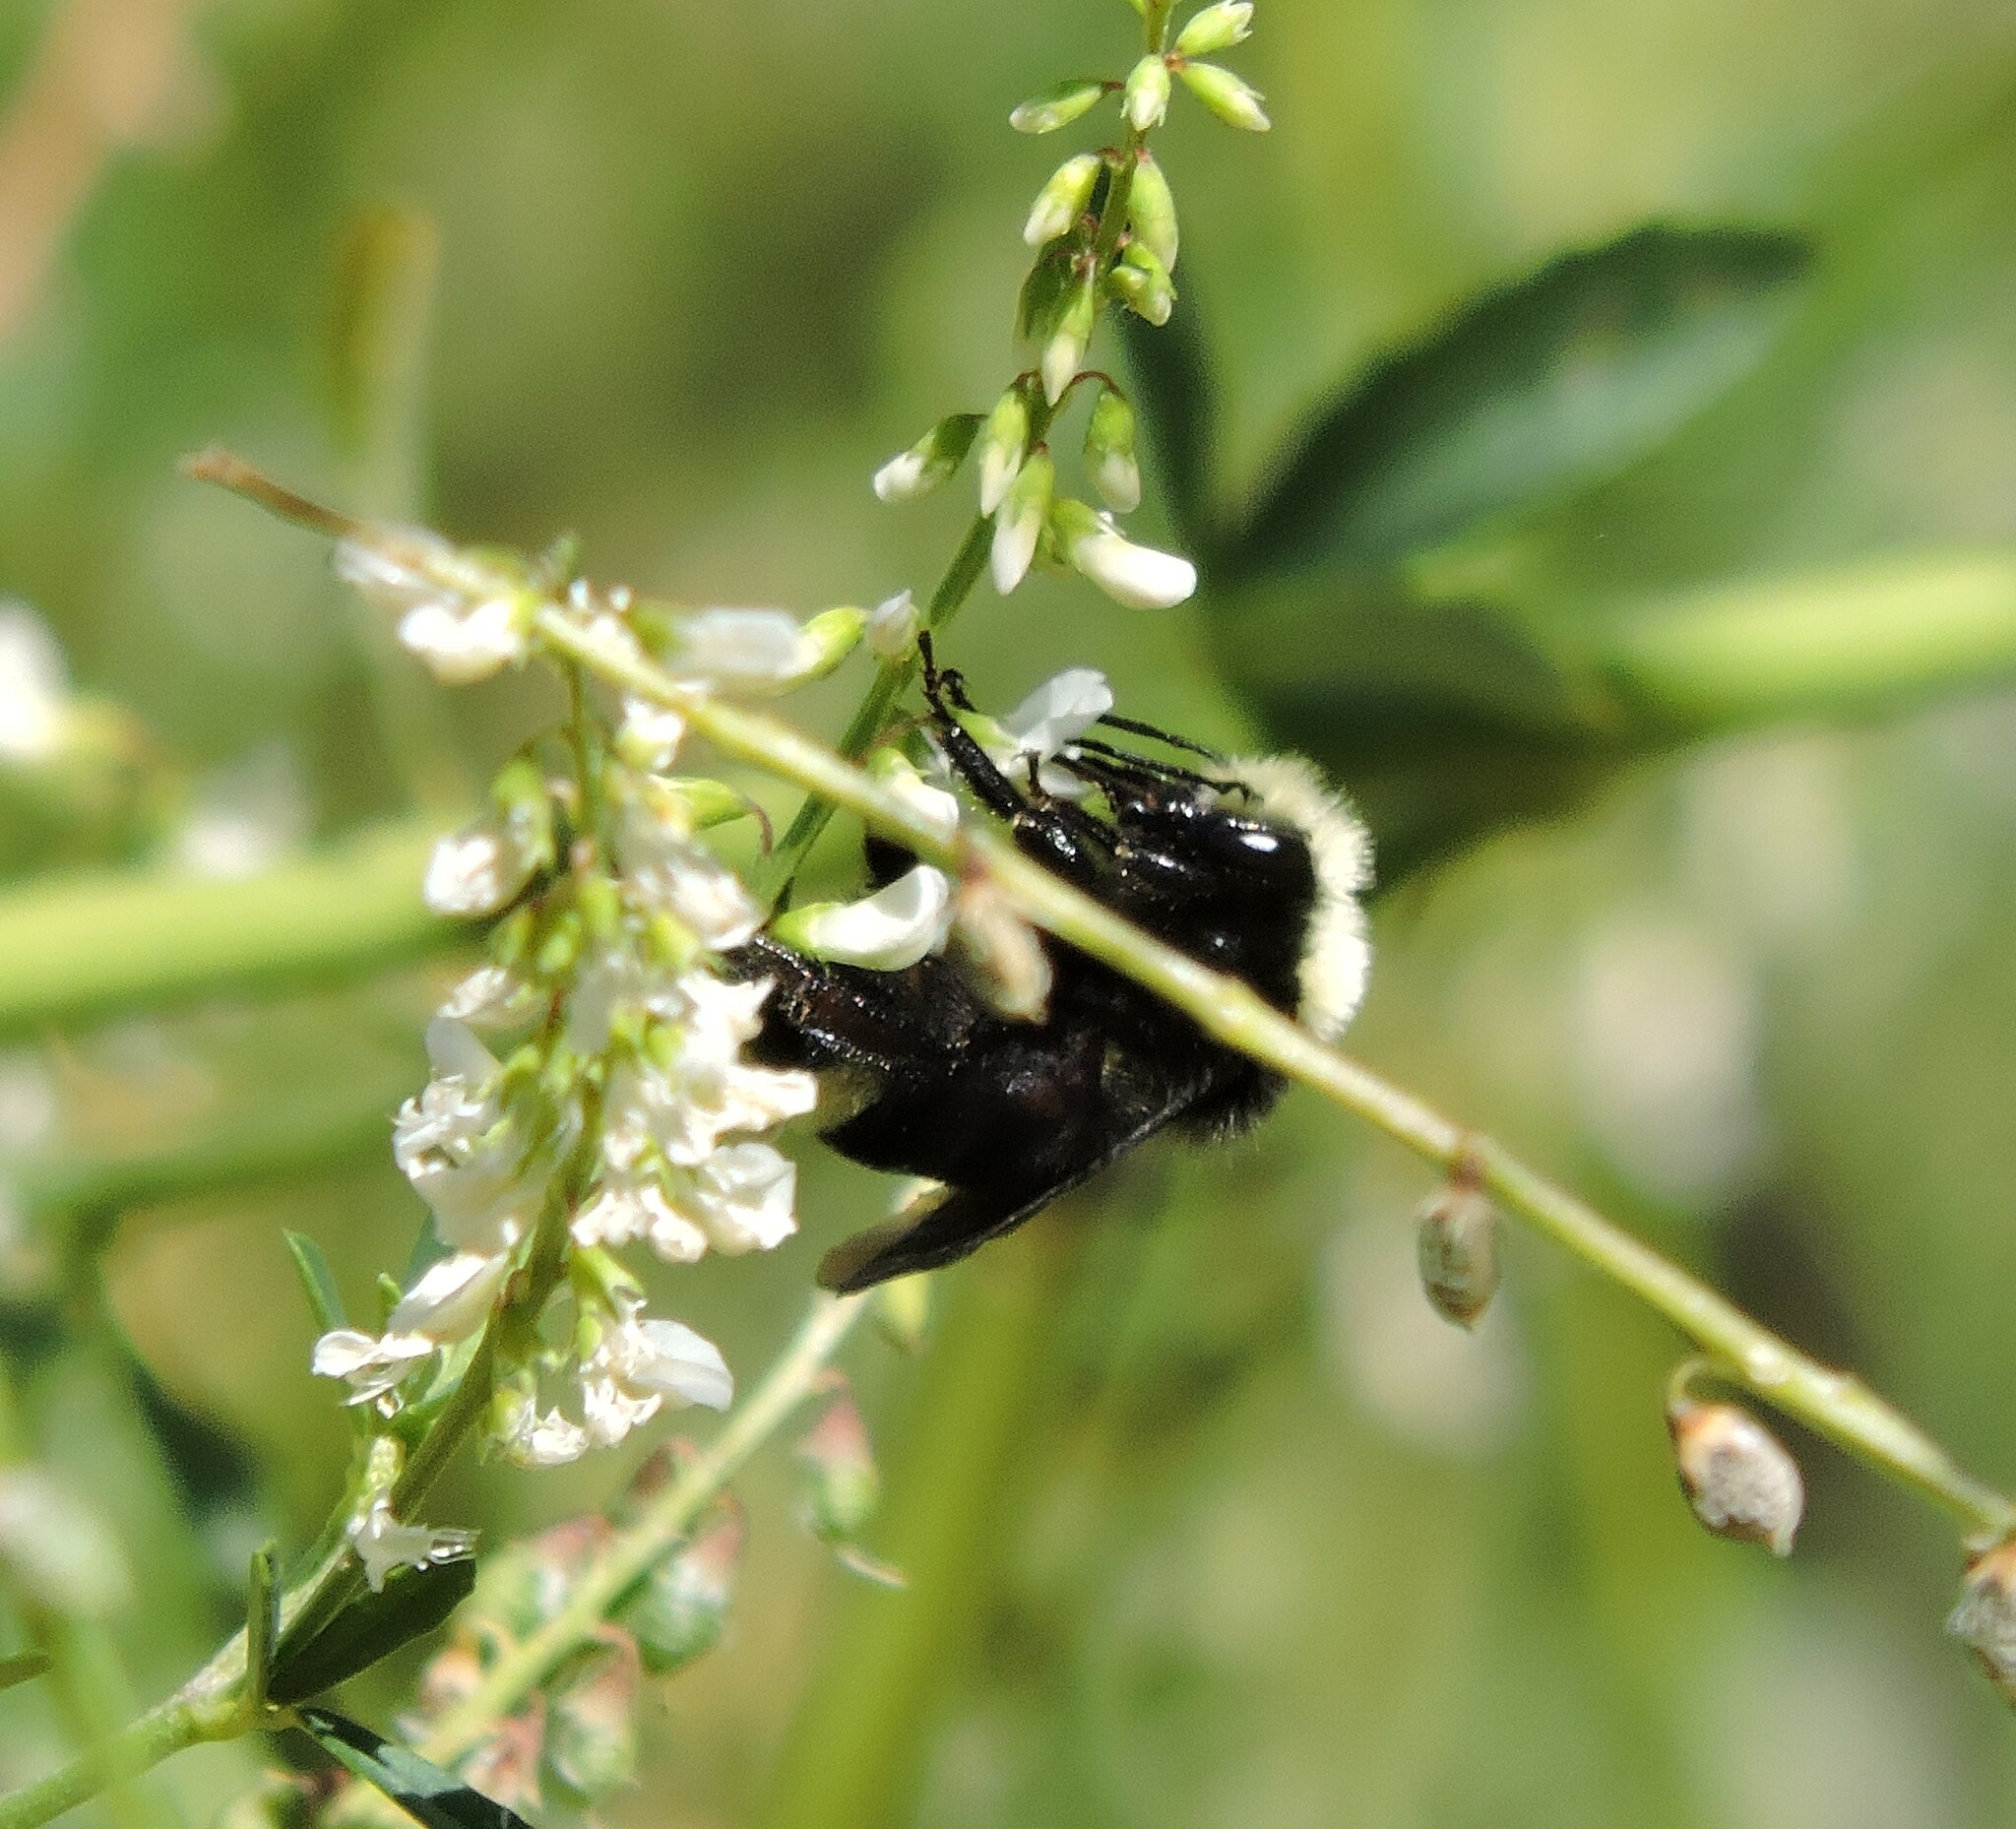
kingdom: Animalia
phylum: Arthropoda
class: Insecta
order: Hymenoptera
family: Apidae
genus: Bombus
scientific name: Bombus vosnesenskii
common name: Vosnesensky bumble bee
